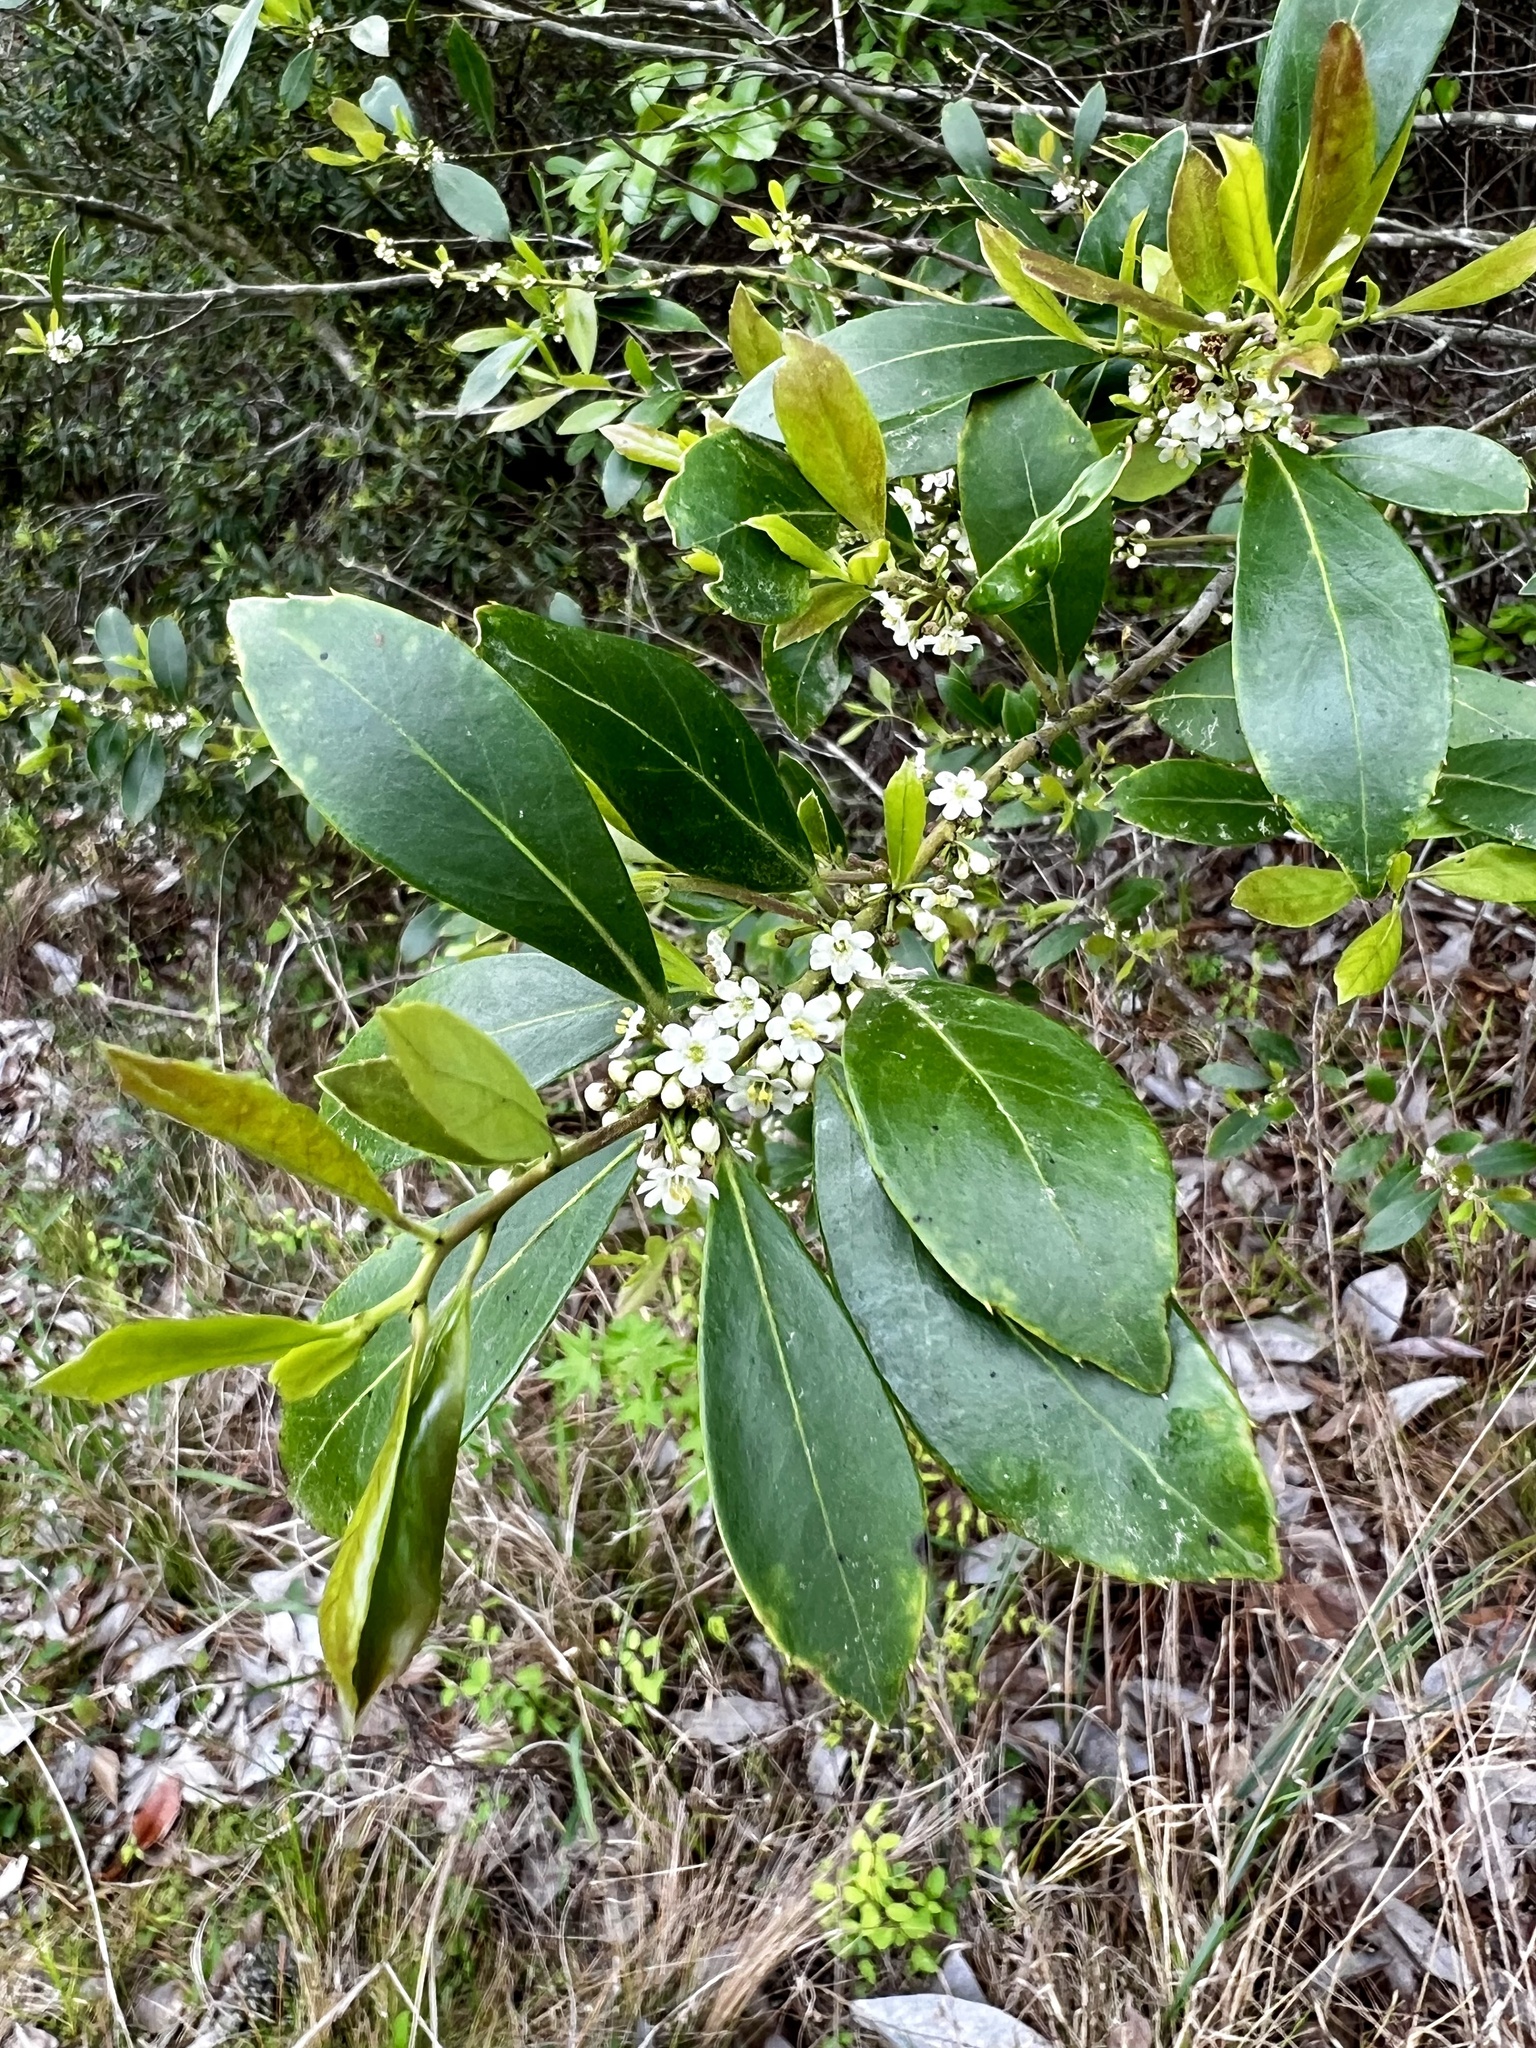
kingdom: Plantae
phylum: Tracheophyta
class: Magnoliopsida
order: Aquifoliales
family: Aquifoliaceae
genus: Ilex
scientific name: Ilex coriacea
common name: Sweet gallberry
